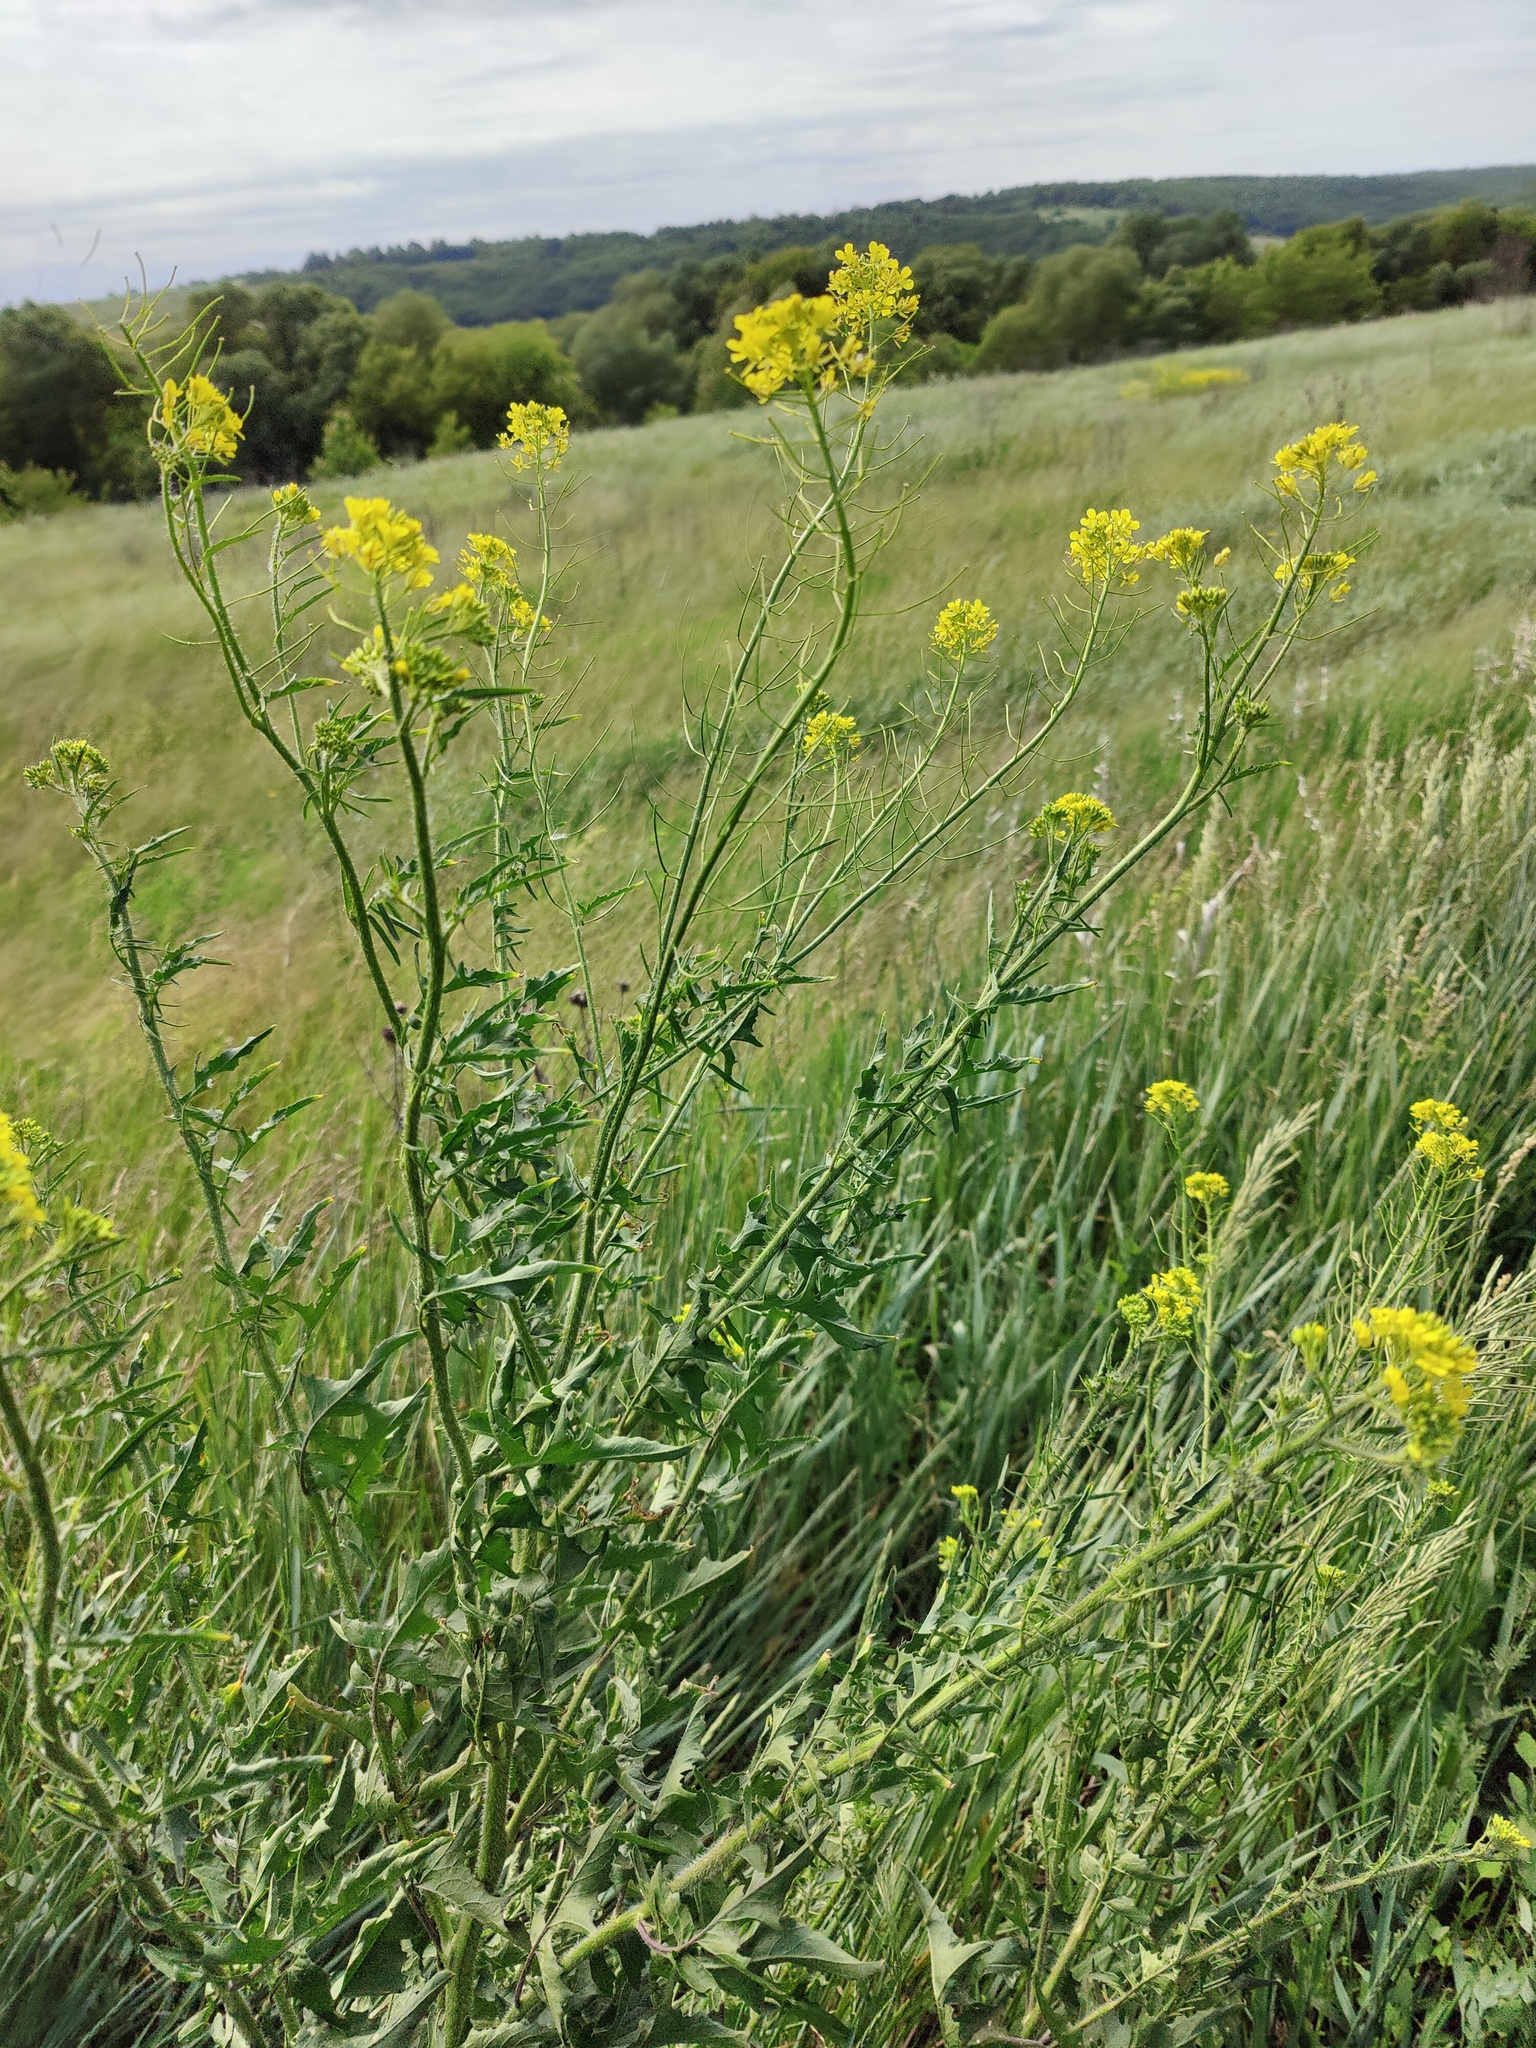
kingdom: Plantae
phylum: Tracheophyta
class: Magnoliopsida
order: Brassicales
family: Brassicaceae
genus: Sisymbrium
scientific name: Sisymbrium loeselii
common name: False london-rocket
